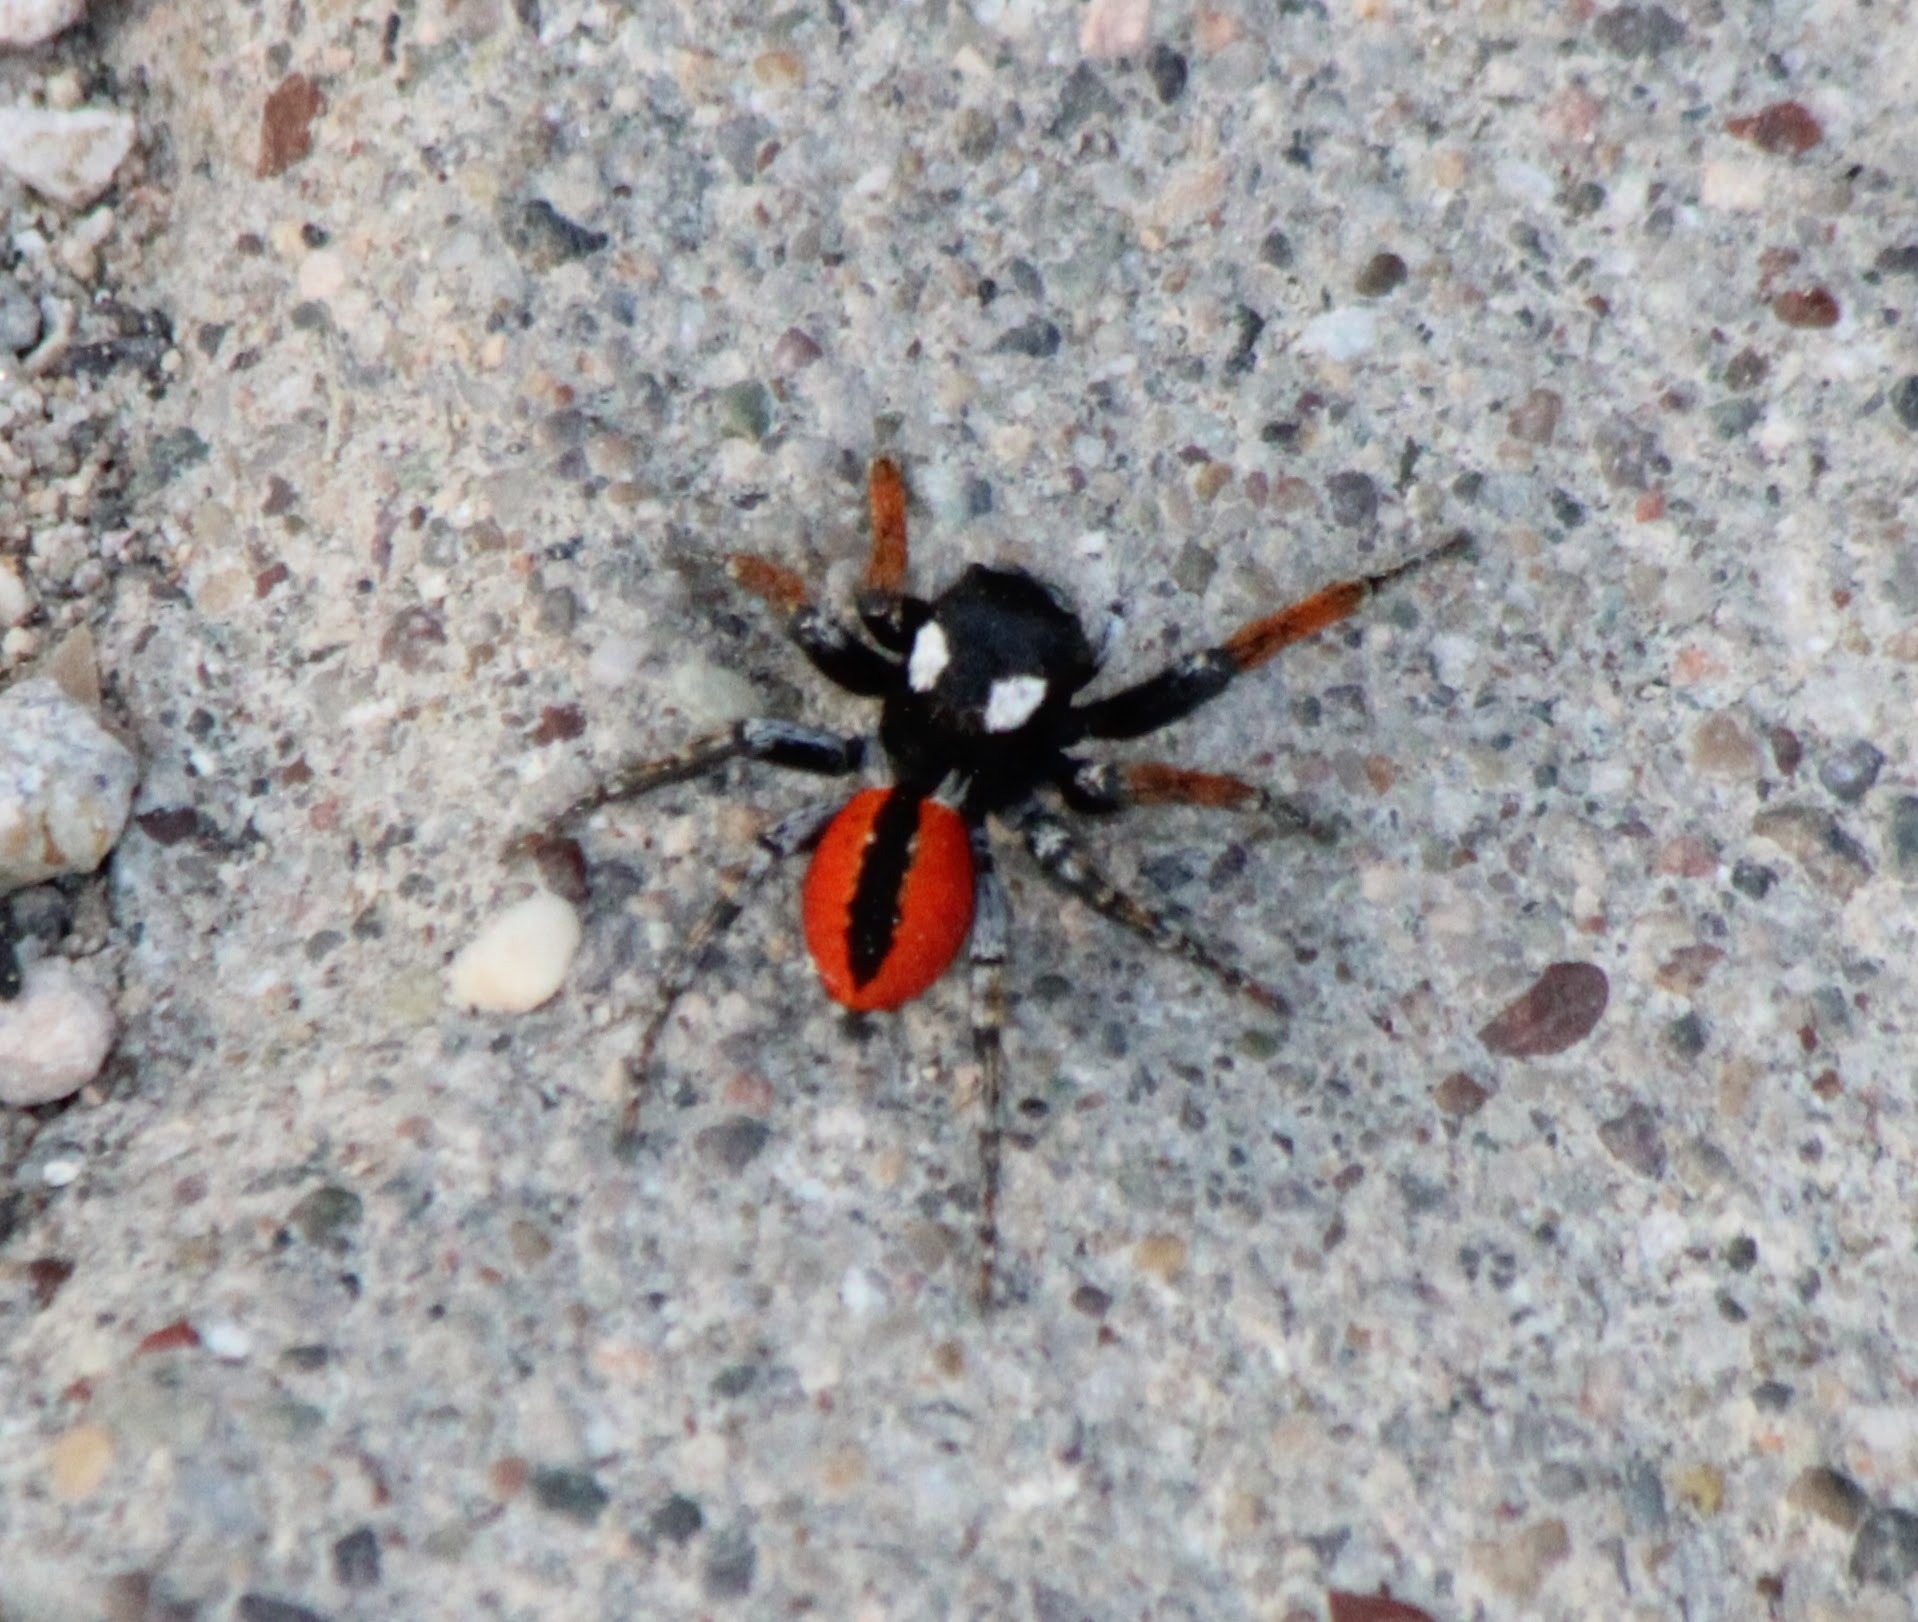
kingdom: Animalia
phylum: Arthropoda
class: Arachnida
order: Araneae
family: Salticidae
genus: Philaeus
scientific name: Philaeus chrysops
